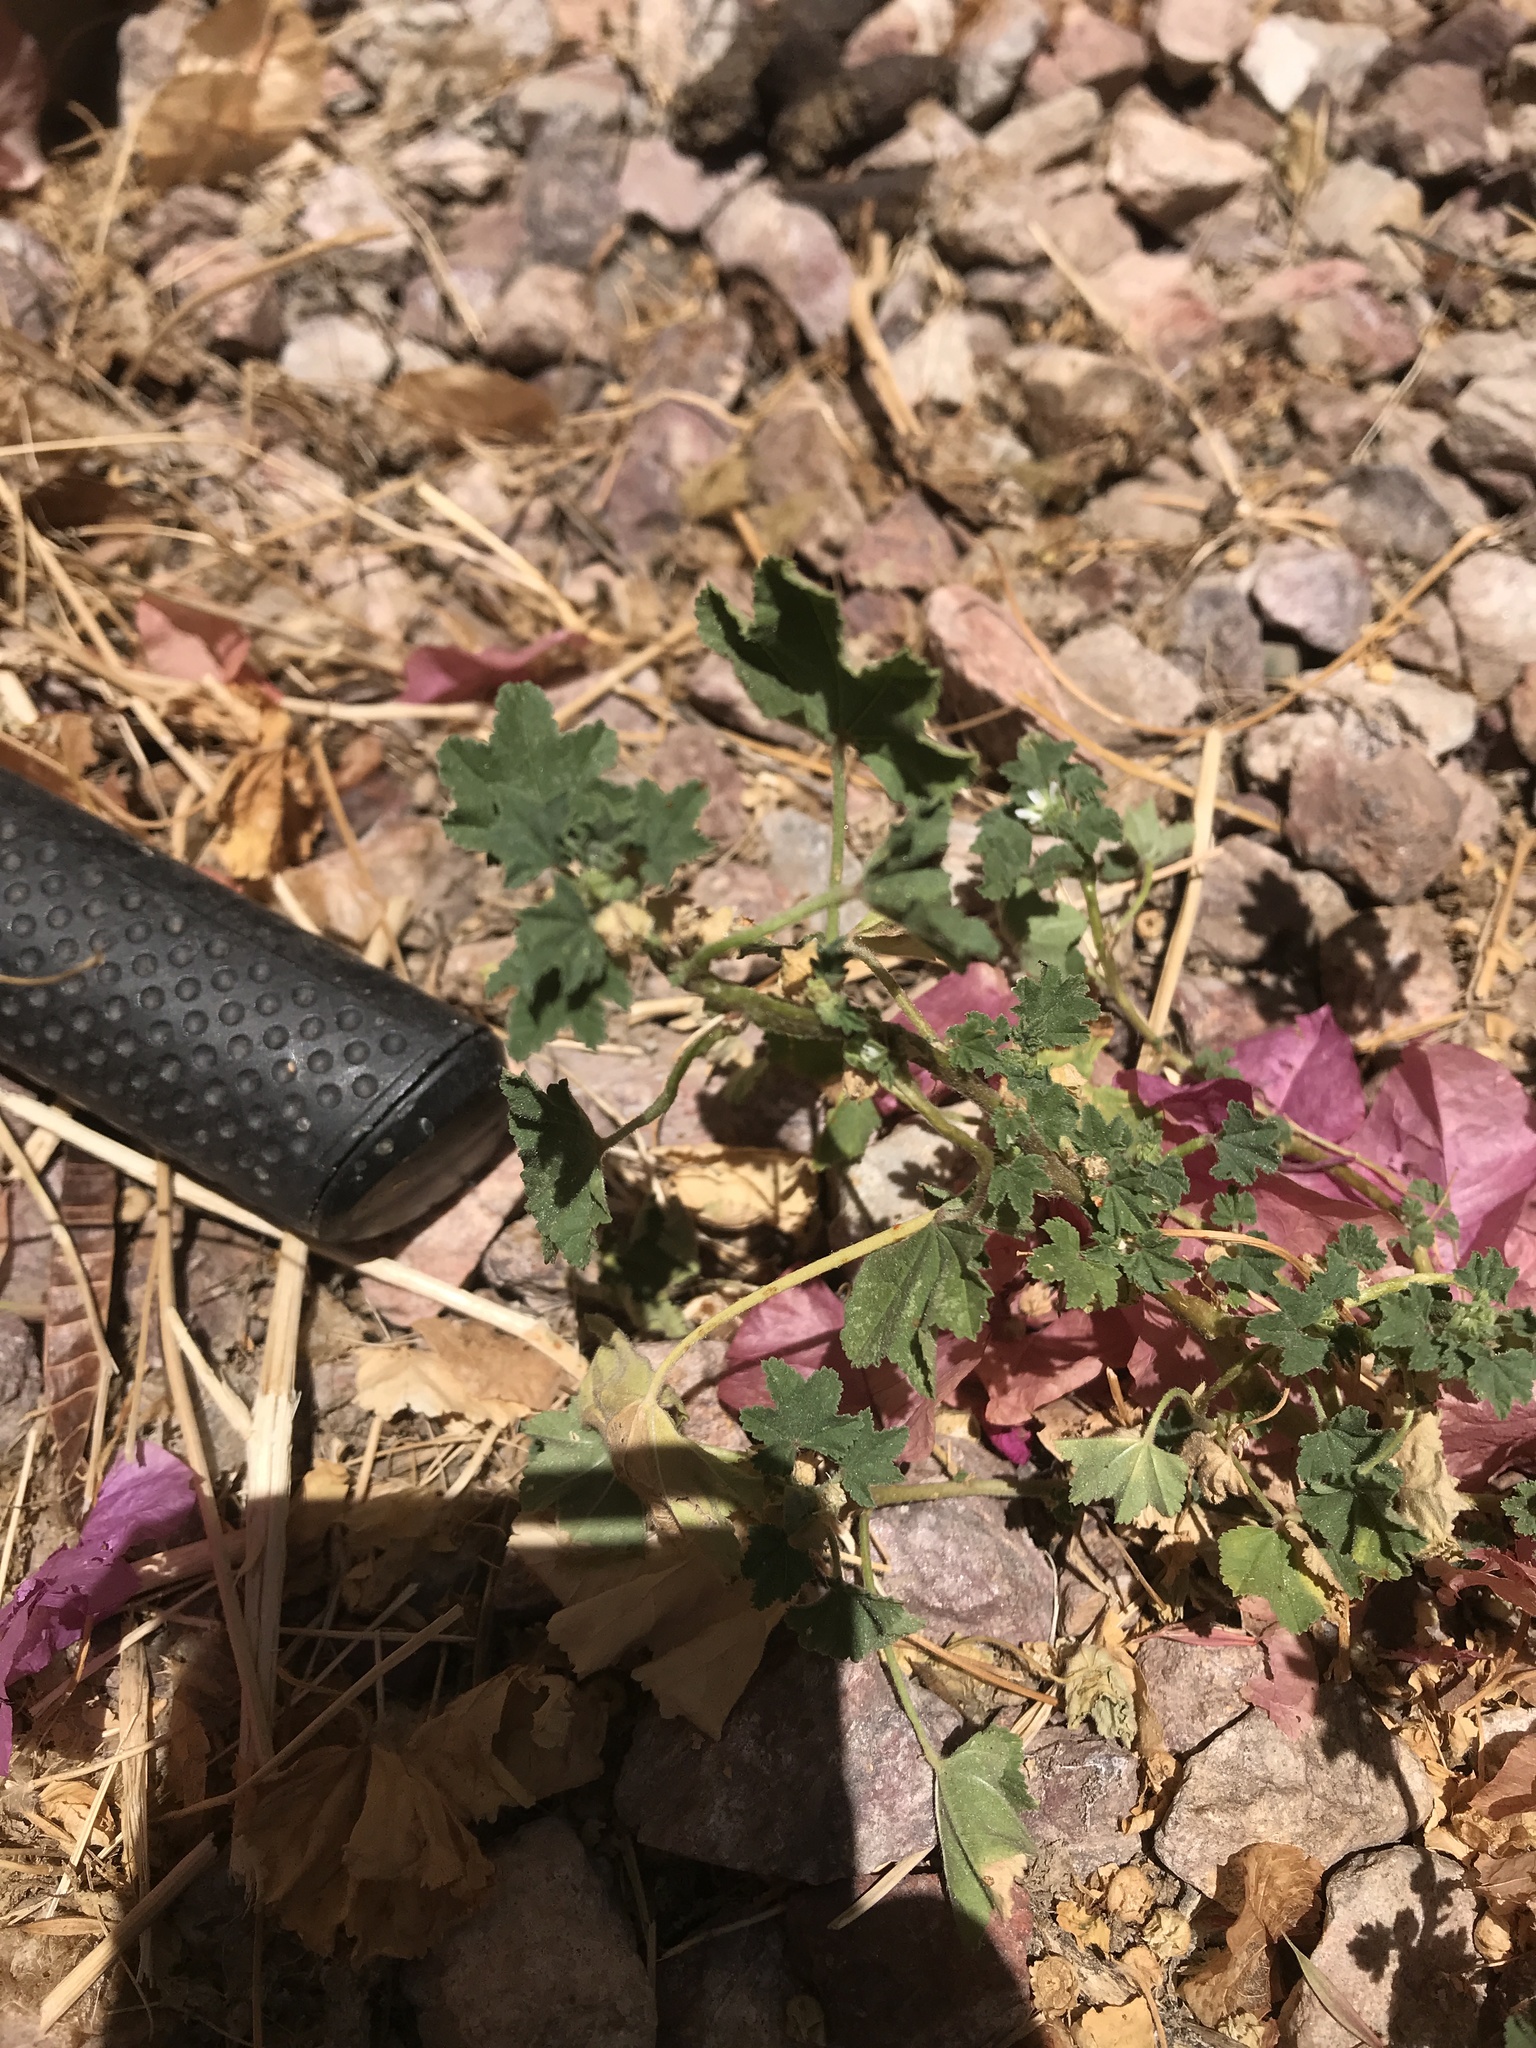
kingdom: Plantae
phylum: Tracheophyta
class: Magnoliopsida
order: Malvales
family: Malvaceae
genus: Malva
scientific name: Malva parviflora
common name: Least mallow
